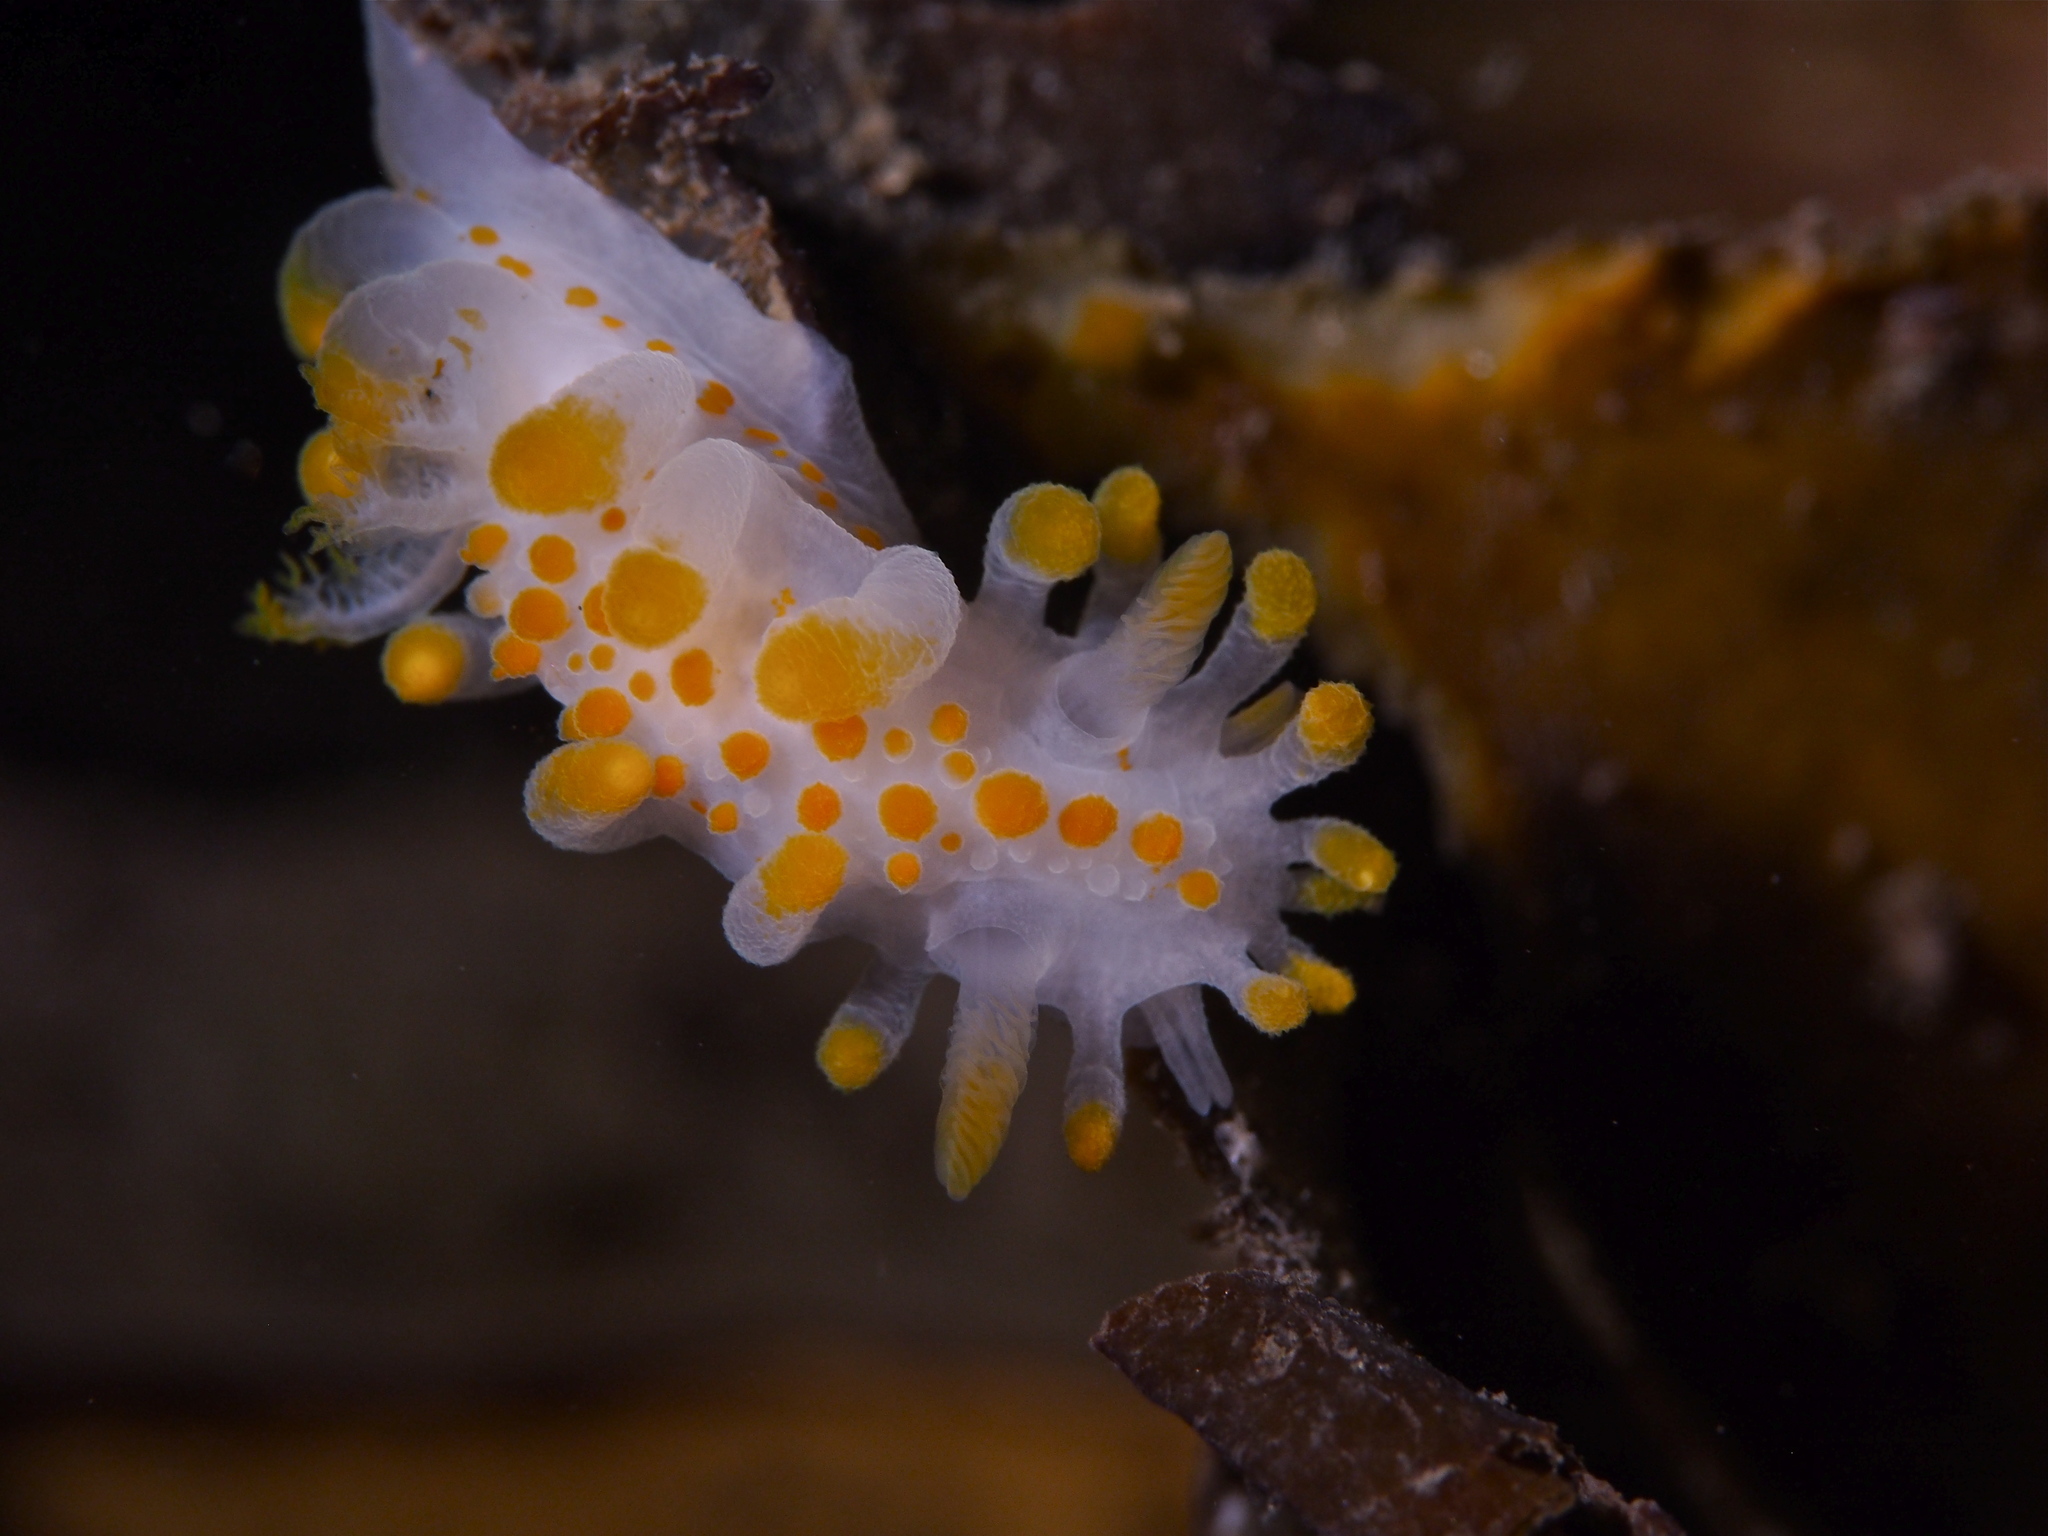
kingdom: Animalia
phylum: Mollusca
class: Gastropoda
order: Nudibranchia
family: Polyceridae
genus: Limacia
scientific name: Limacia clavigera
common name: Orange-clubbed sea slug
